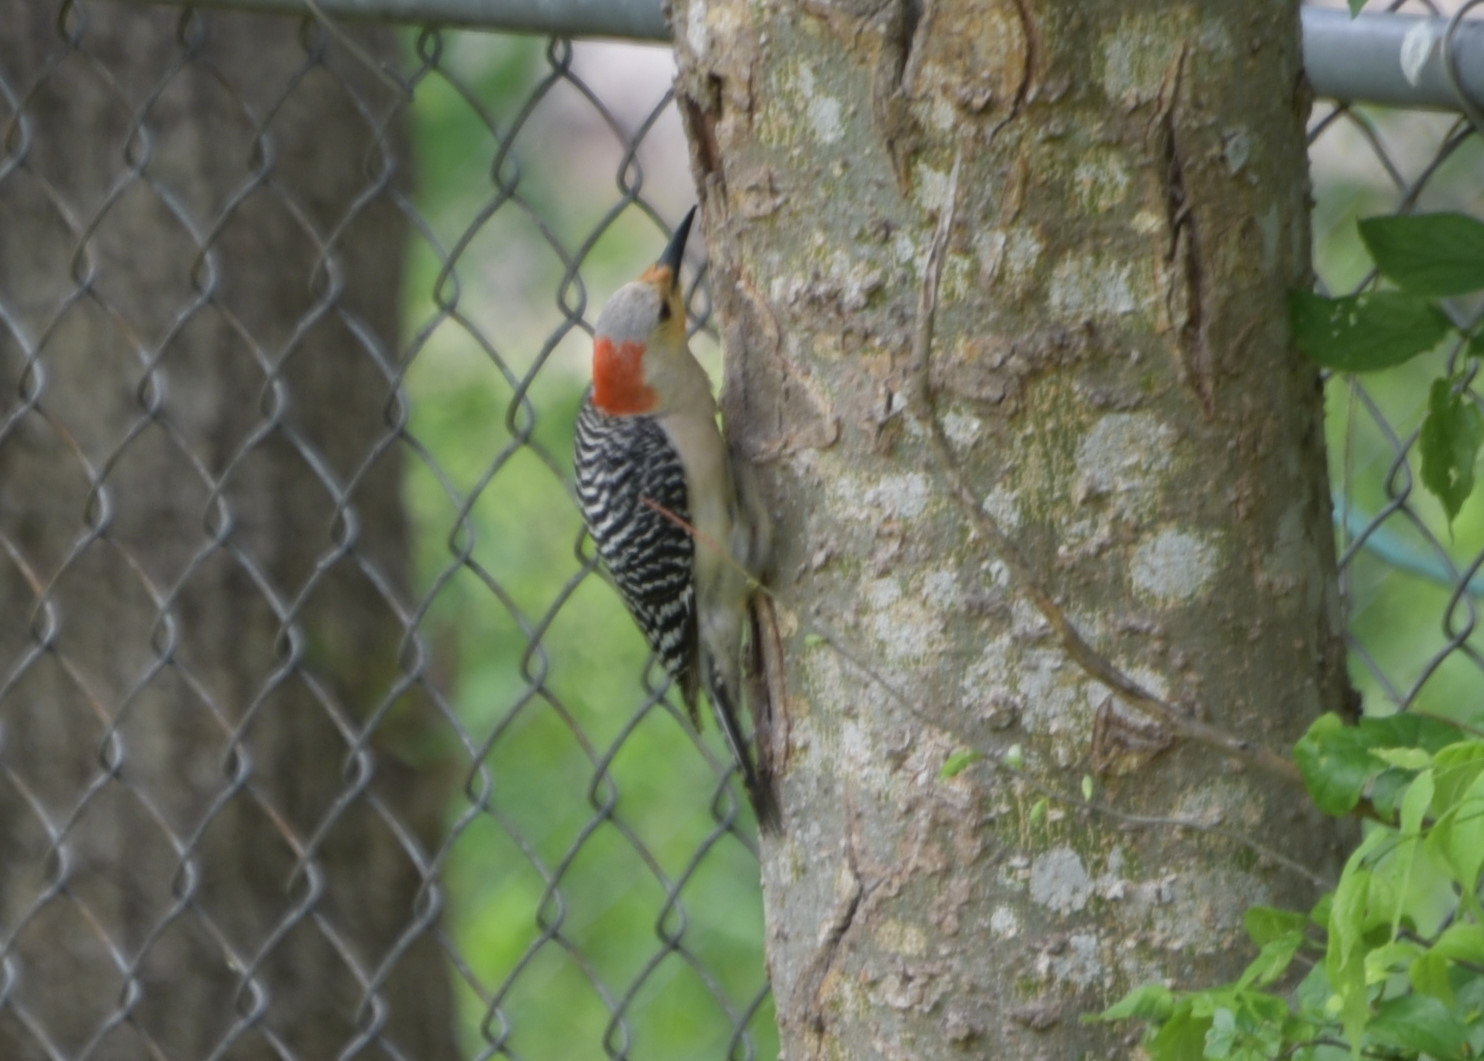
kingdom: Animalia
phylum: Chordata
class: Aves
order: Piciformes
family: Picidae
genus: Melanerpes
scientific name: Melanerpes carolinus
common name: Red-bellied woodpecker
